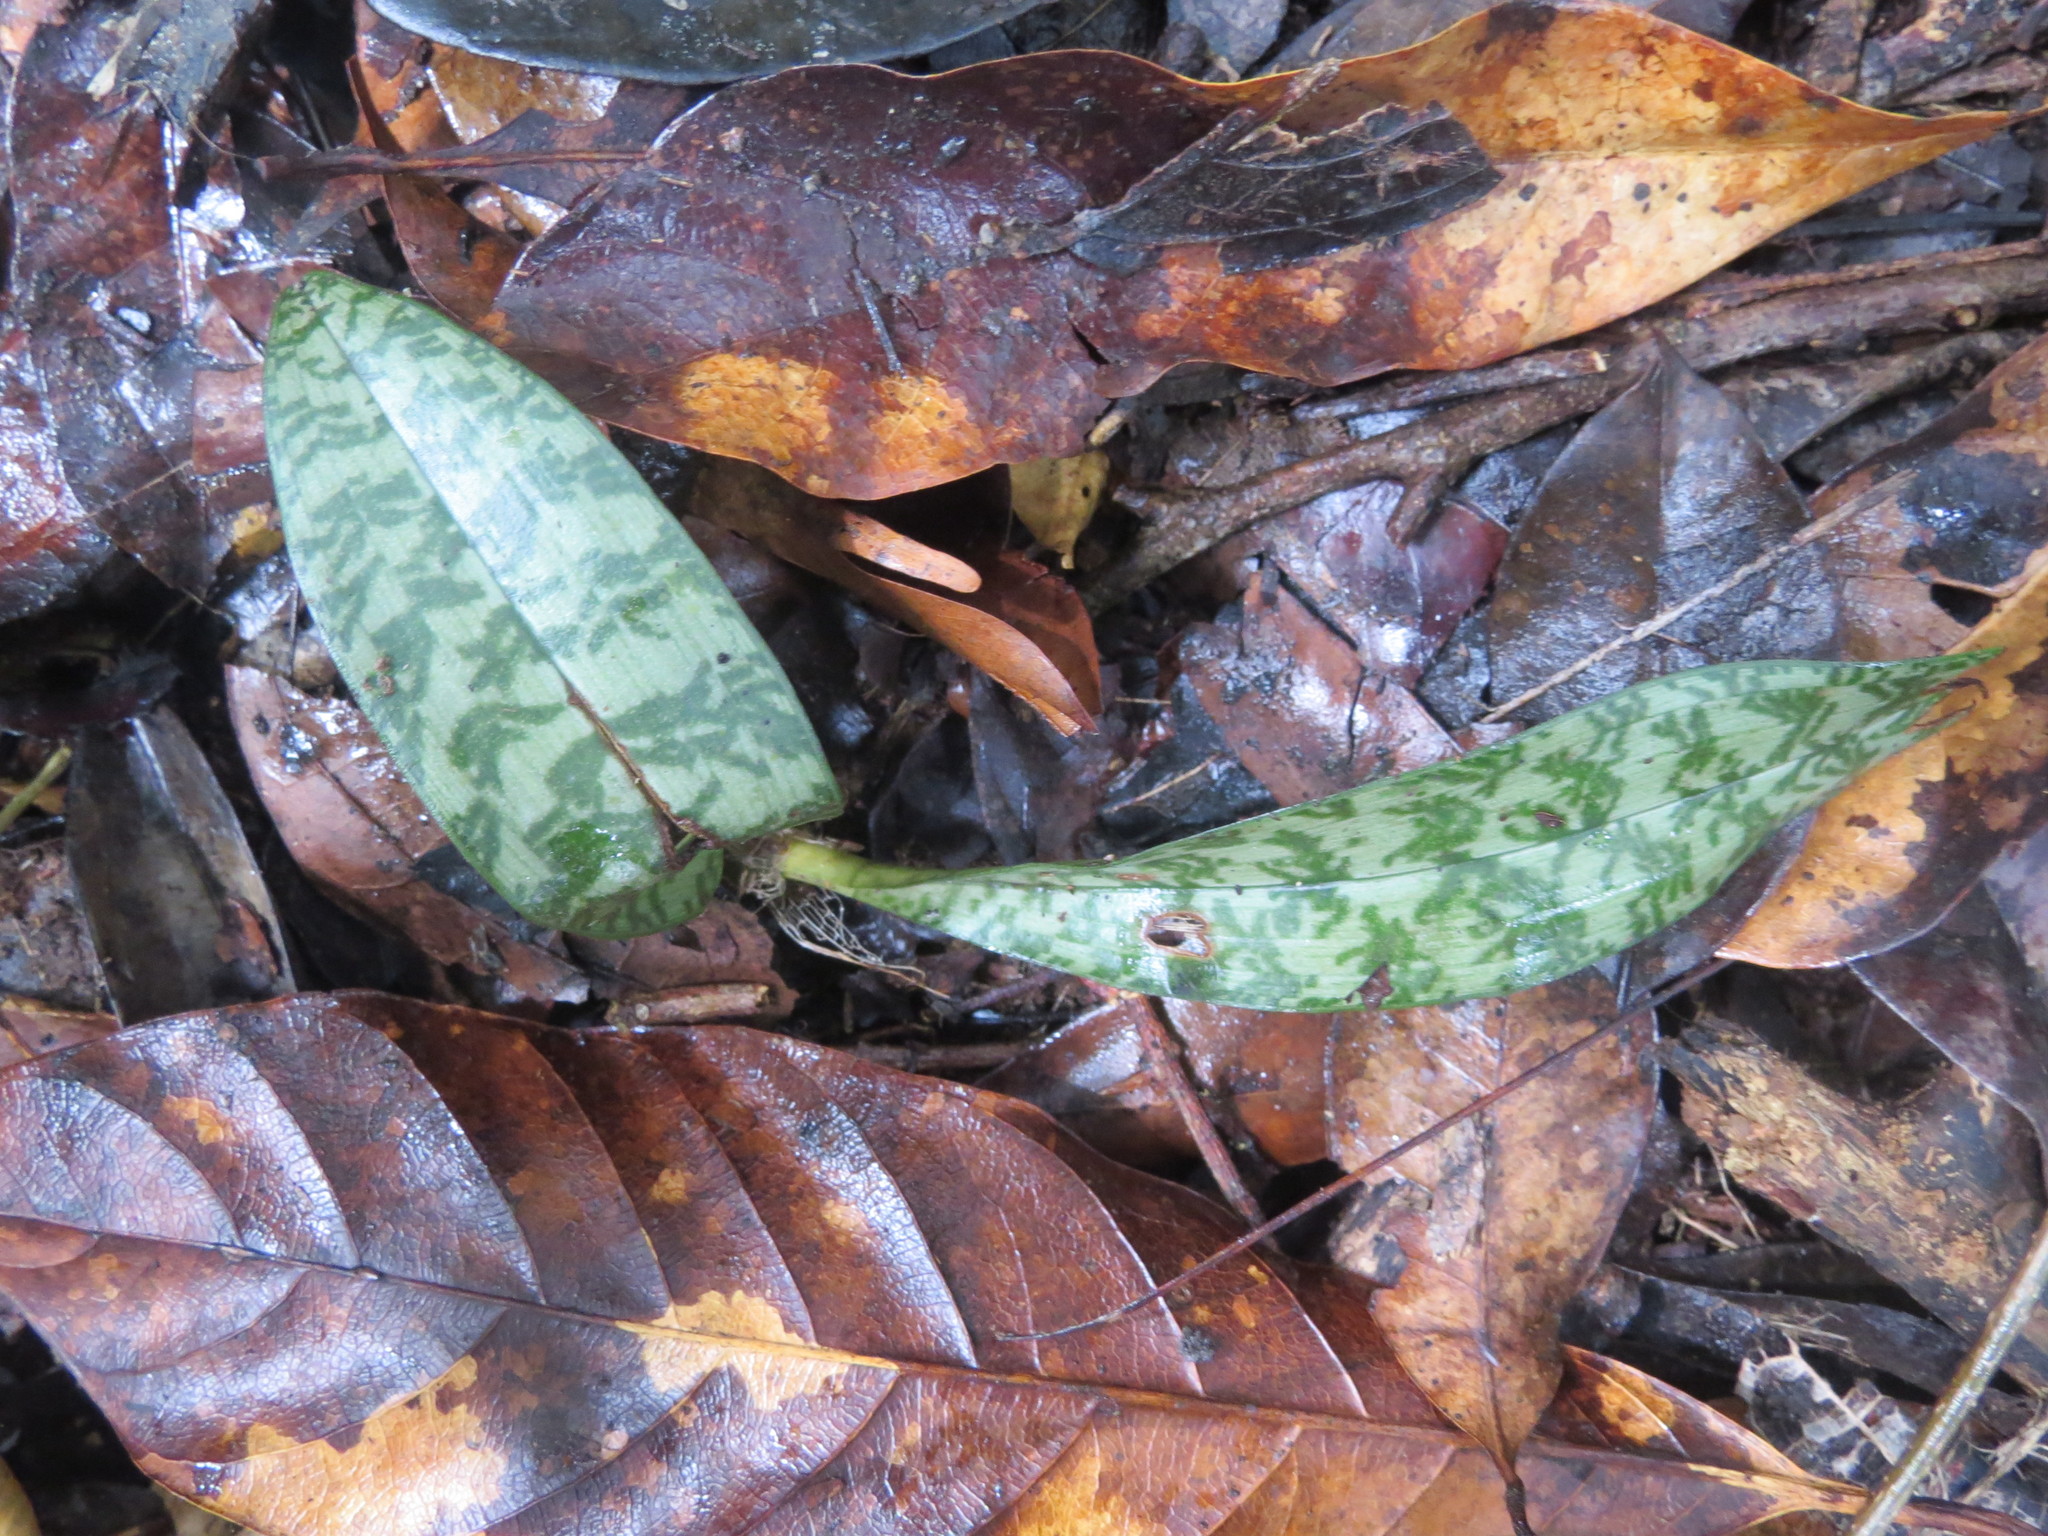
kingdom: Plantae
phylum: Tracheophyta
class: Liliopsida
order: Asparagales
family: Orchidaceae
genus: Eulophia
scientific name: Eulophia maculata
